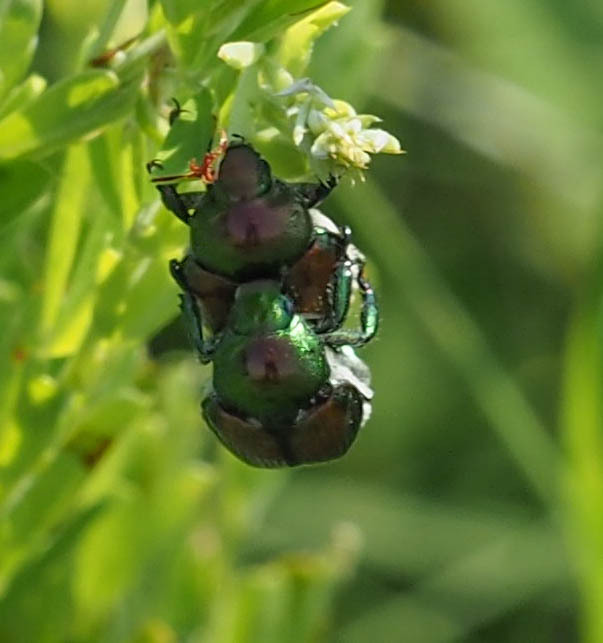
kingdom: Animalia
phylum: Arthropoda
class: Insecta
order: Coleoptera
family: Scarabaeidae
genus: Popillia
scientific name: Popillia japonica
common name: Japanese beetle
